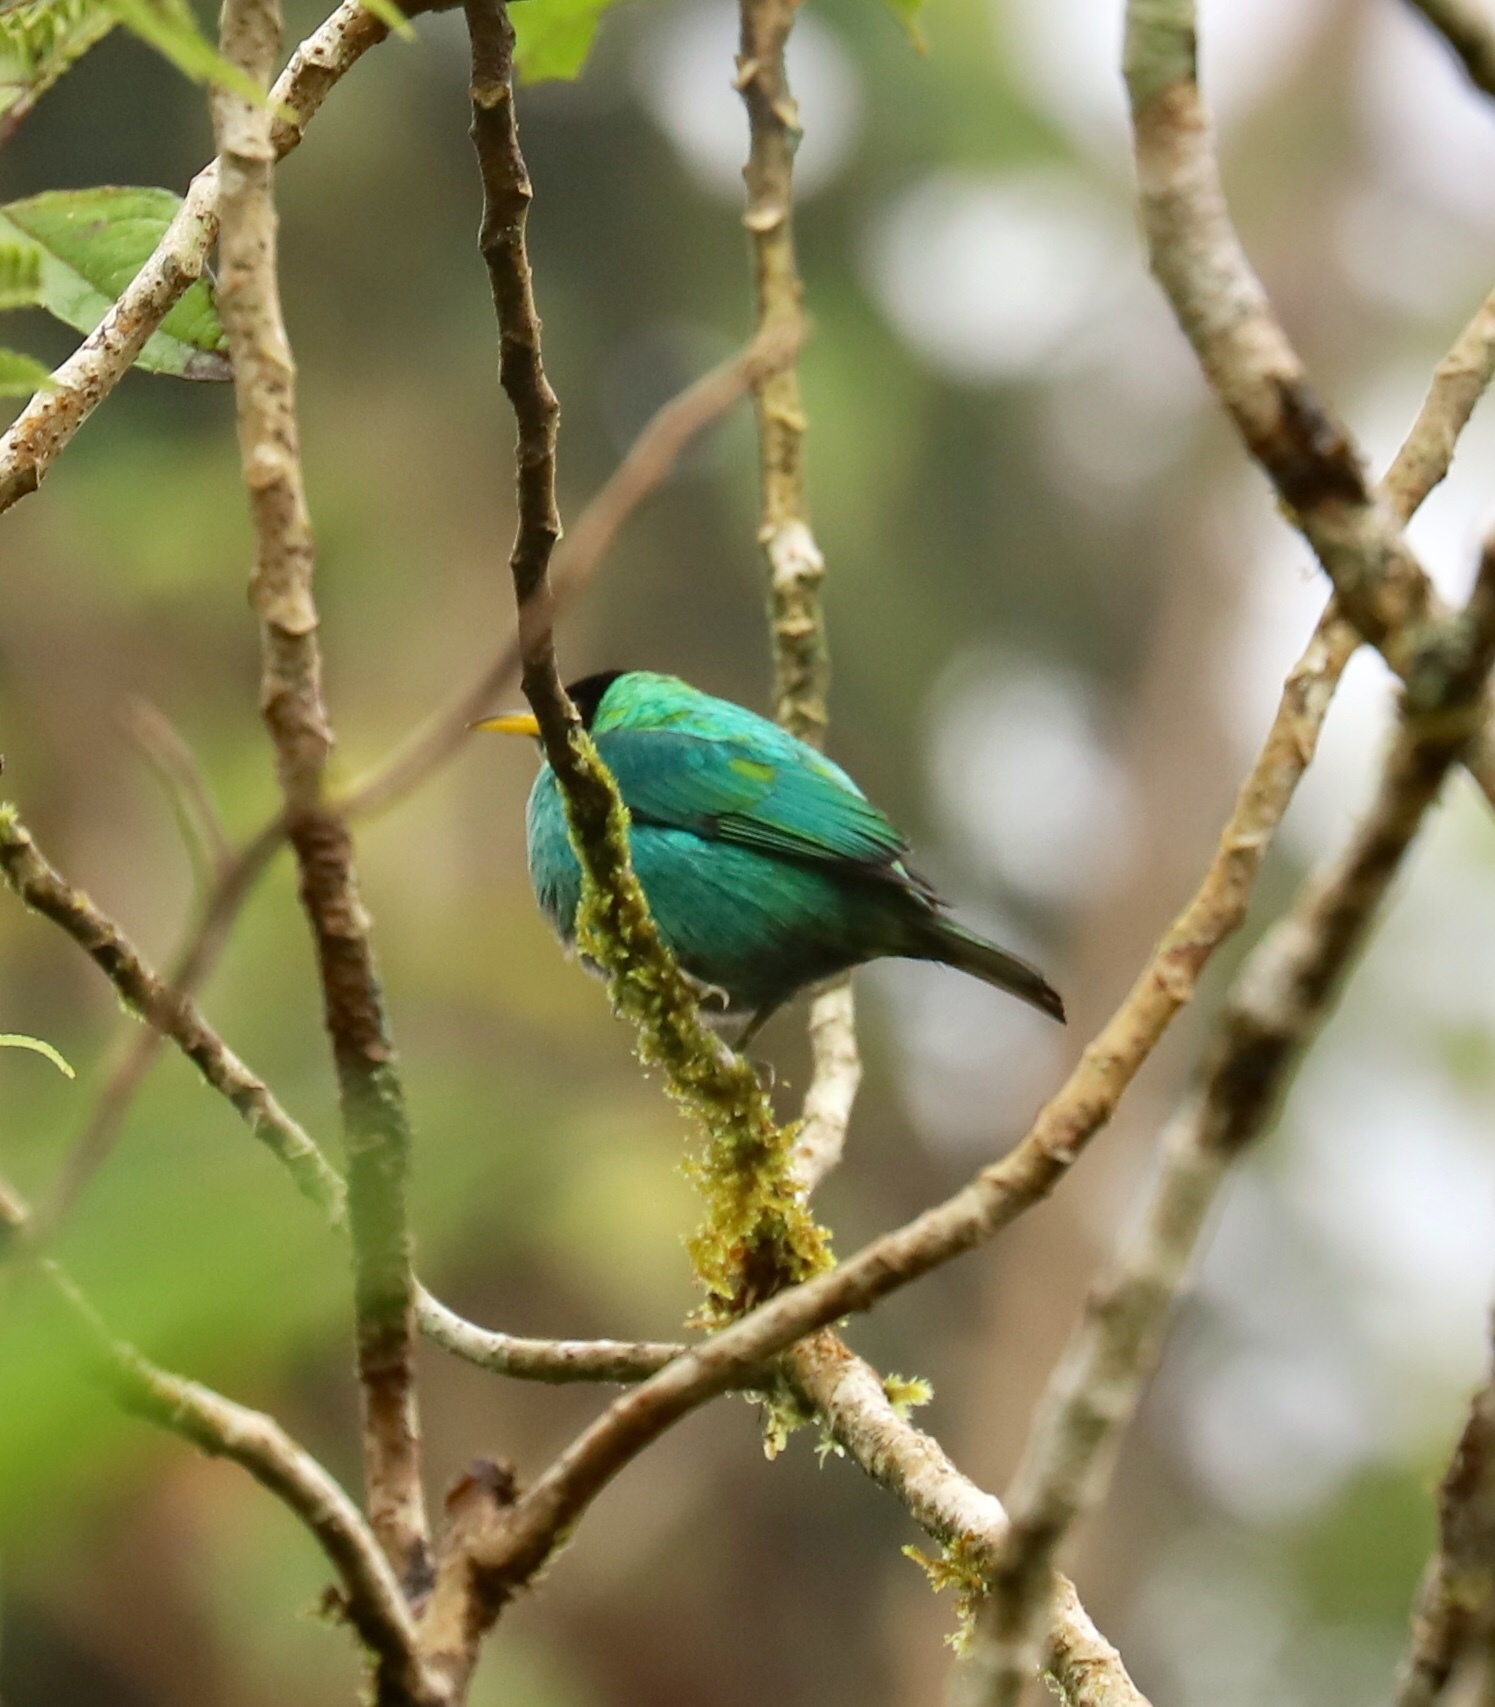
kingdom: Animalia
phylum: Chordata
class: Aves
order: Passeriformes
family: Thraupidae
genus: Chlorophanes
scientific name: Chlorophanes spiza
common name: Green honeycreeper
